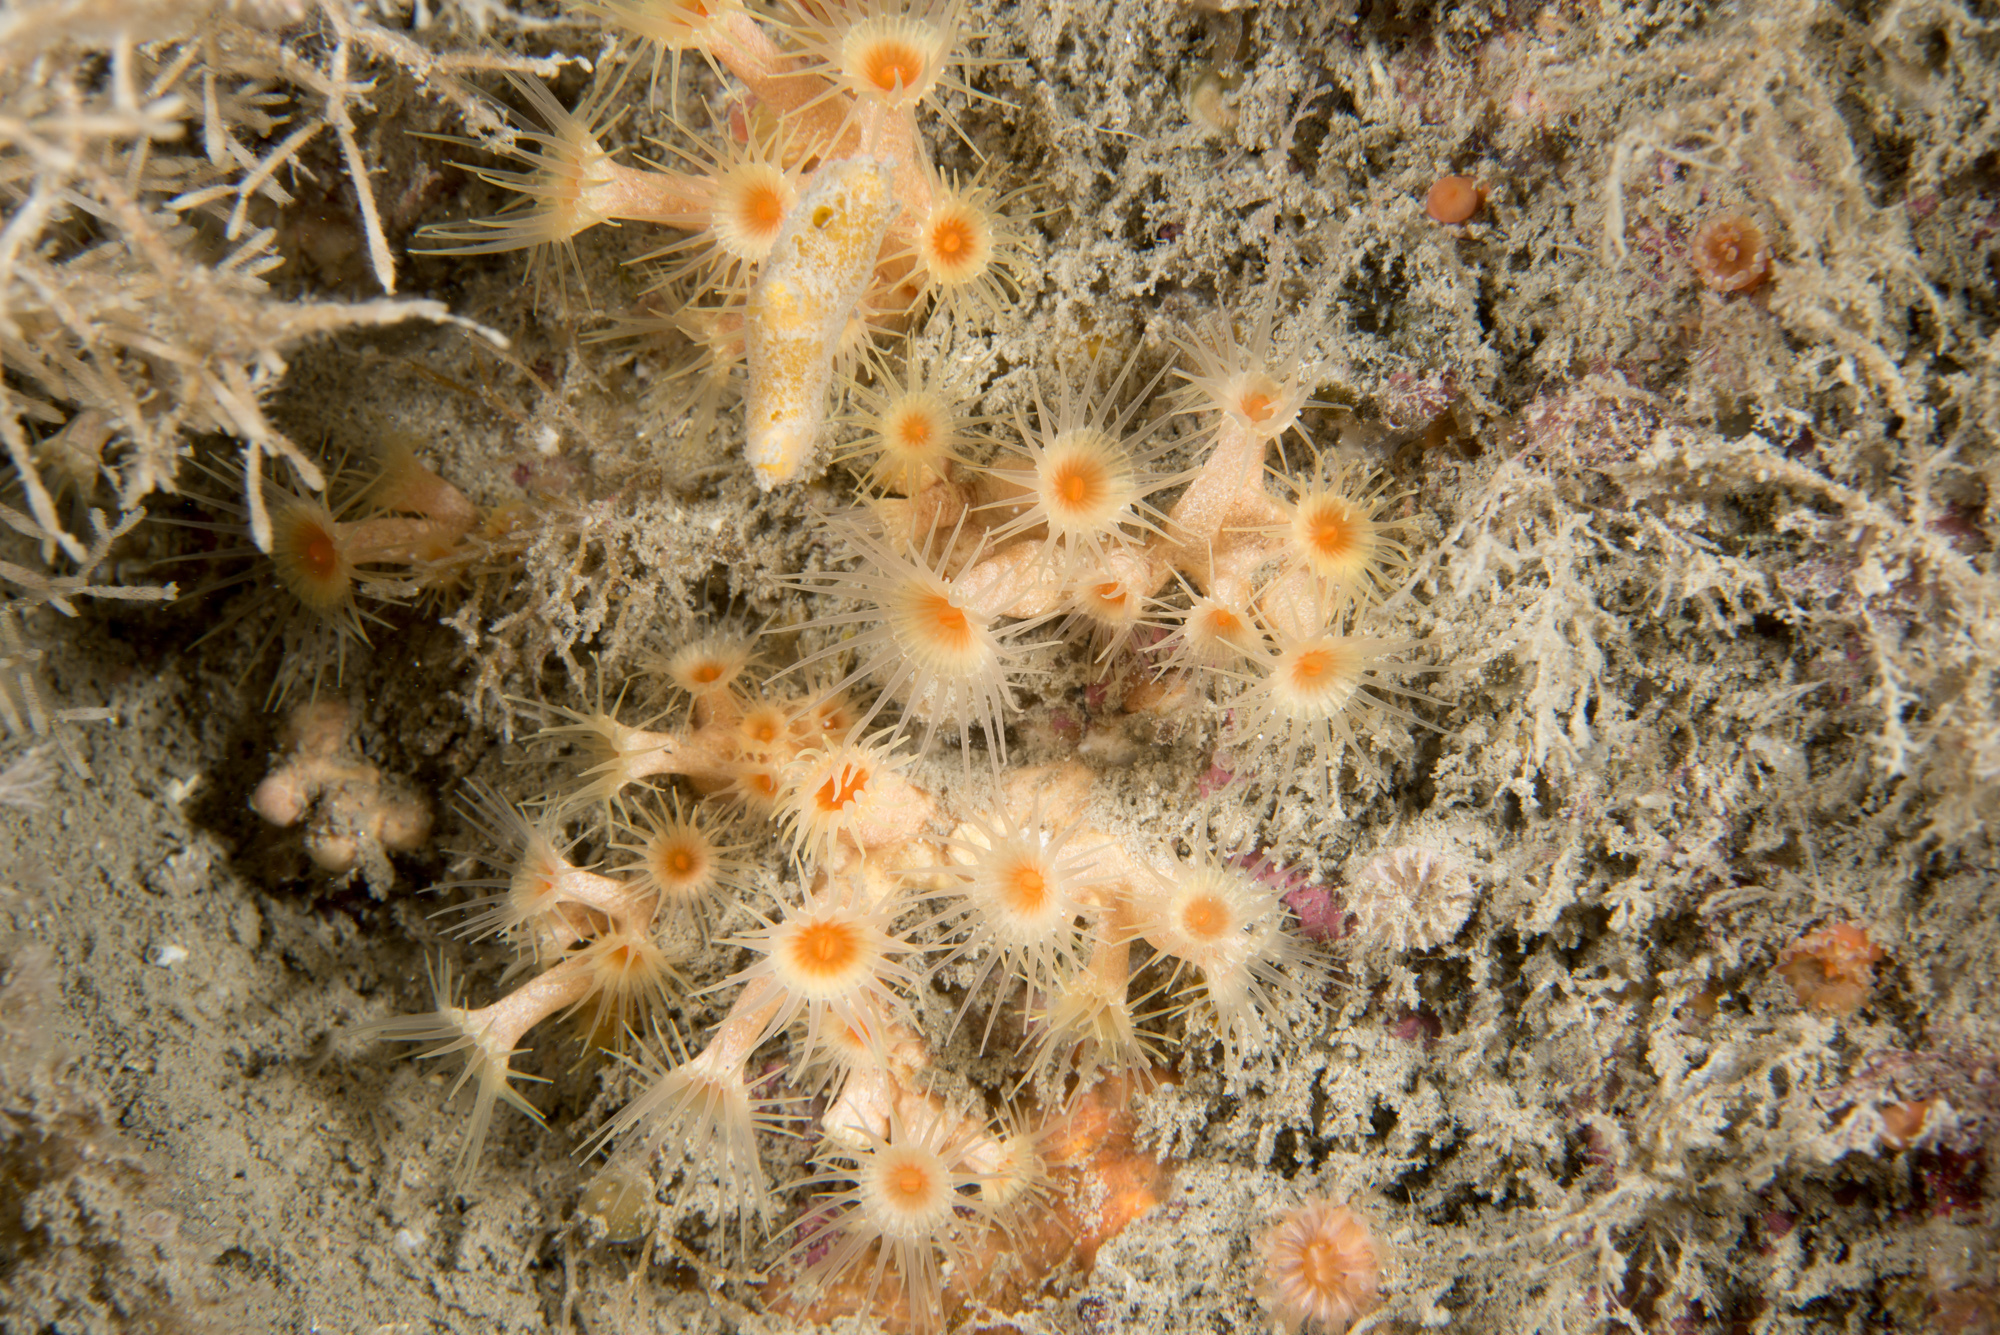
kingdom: Animalia
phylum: Cnidaria
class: Anthozoa
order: Zoantharia
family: Parazoanthidae
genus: Parazoanthus
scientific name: Parazoanthus axinellae
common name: Yellow cluster anemone
